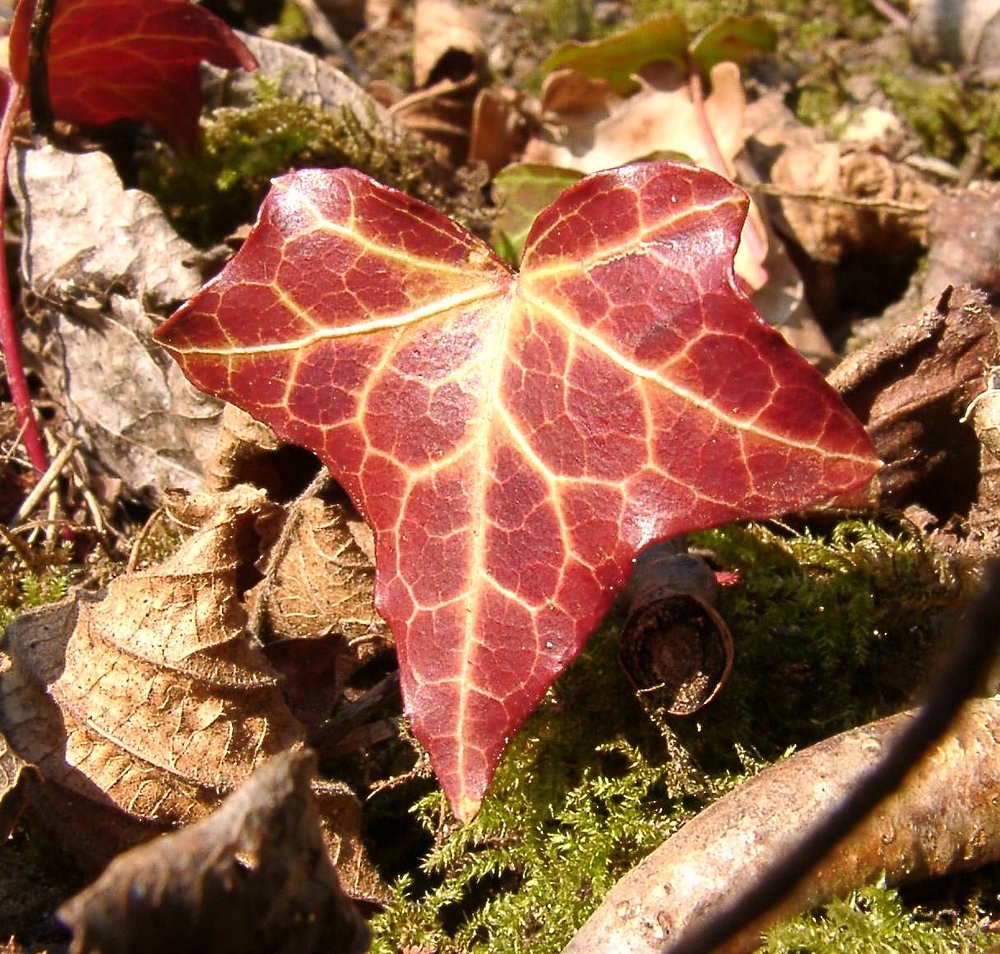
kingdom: Plantae
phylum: Tracheophyta
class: Magnoliopsida
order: Apiales
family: Araliaceae
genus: Hedera
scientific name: Hedera helix
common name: Ivy
